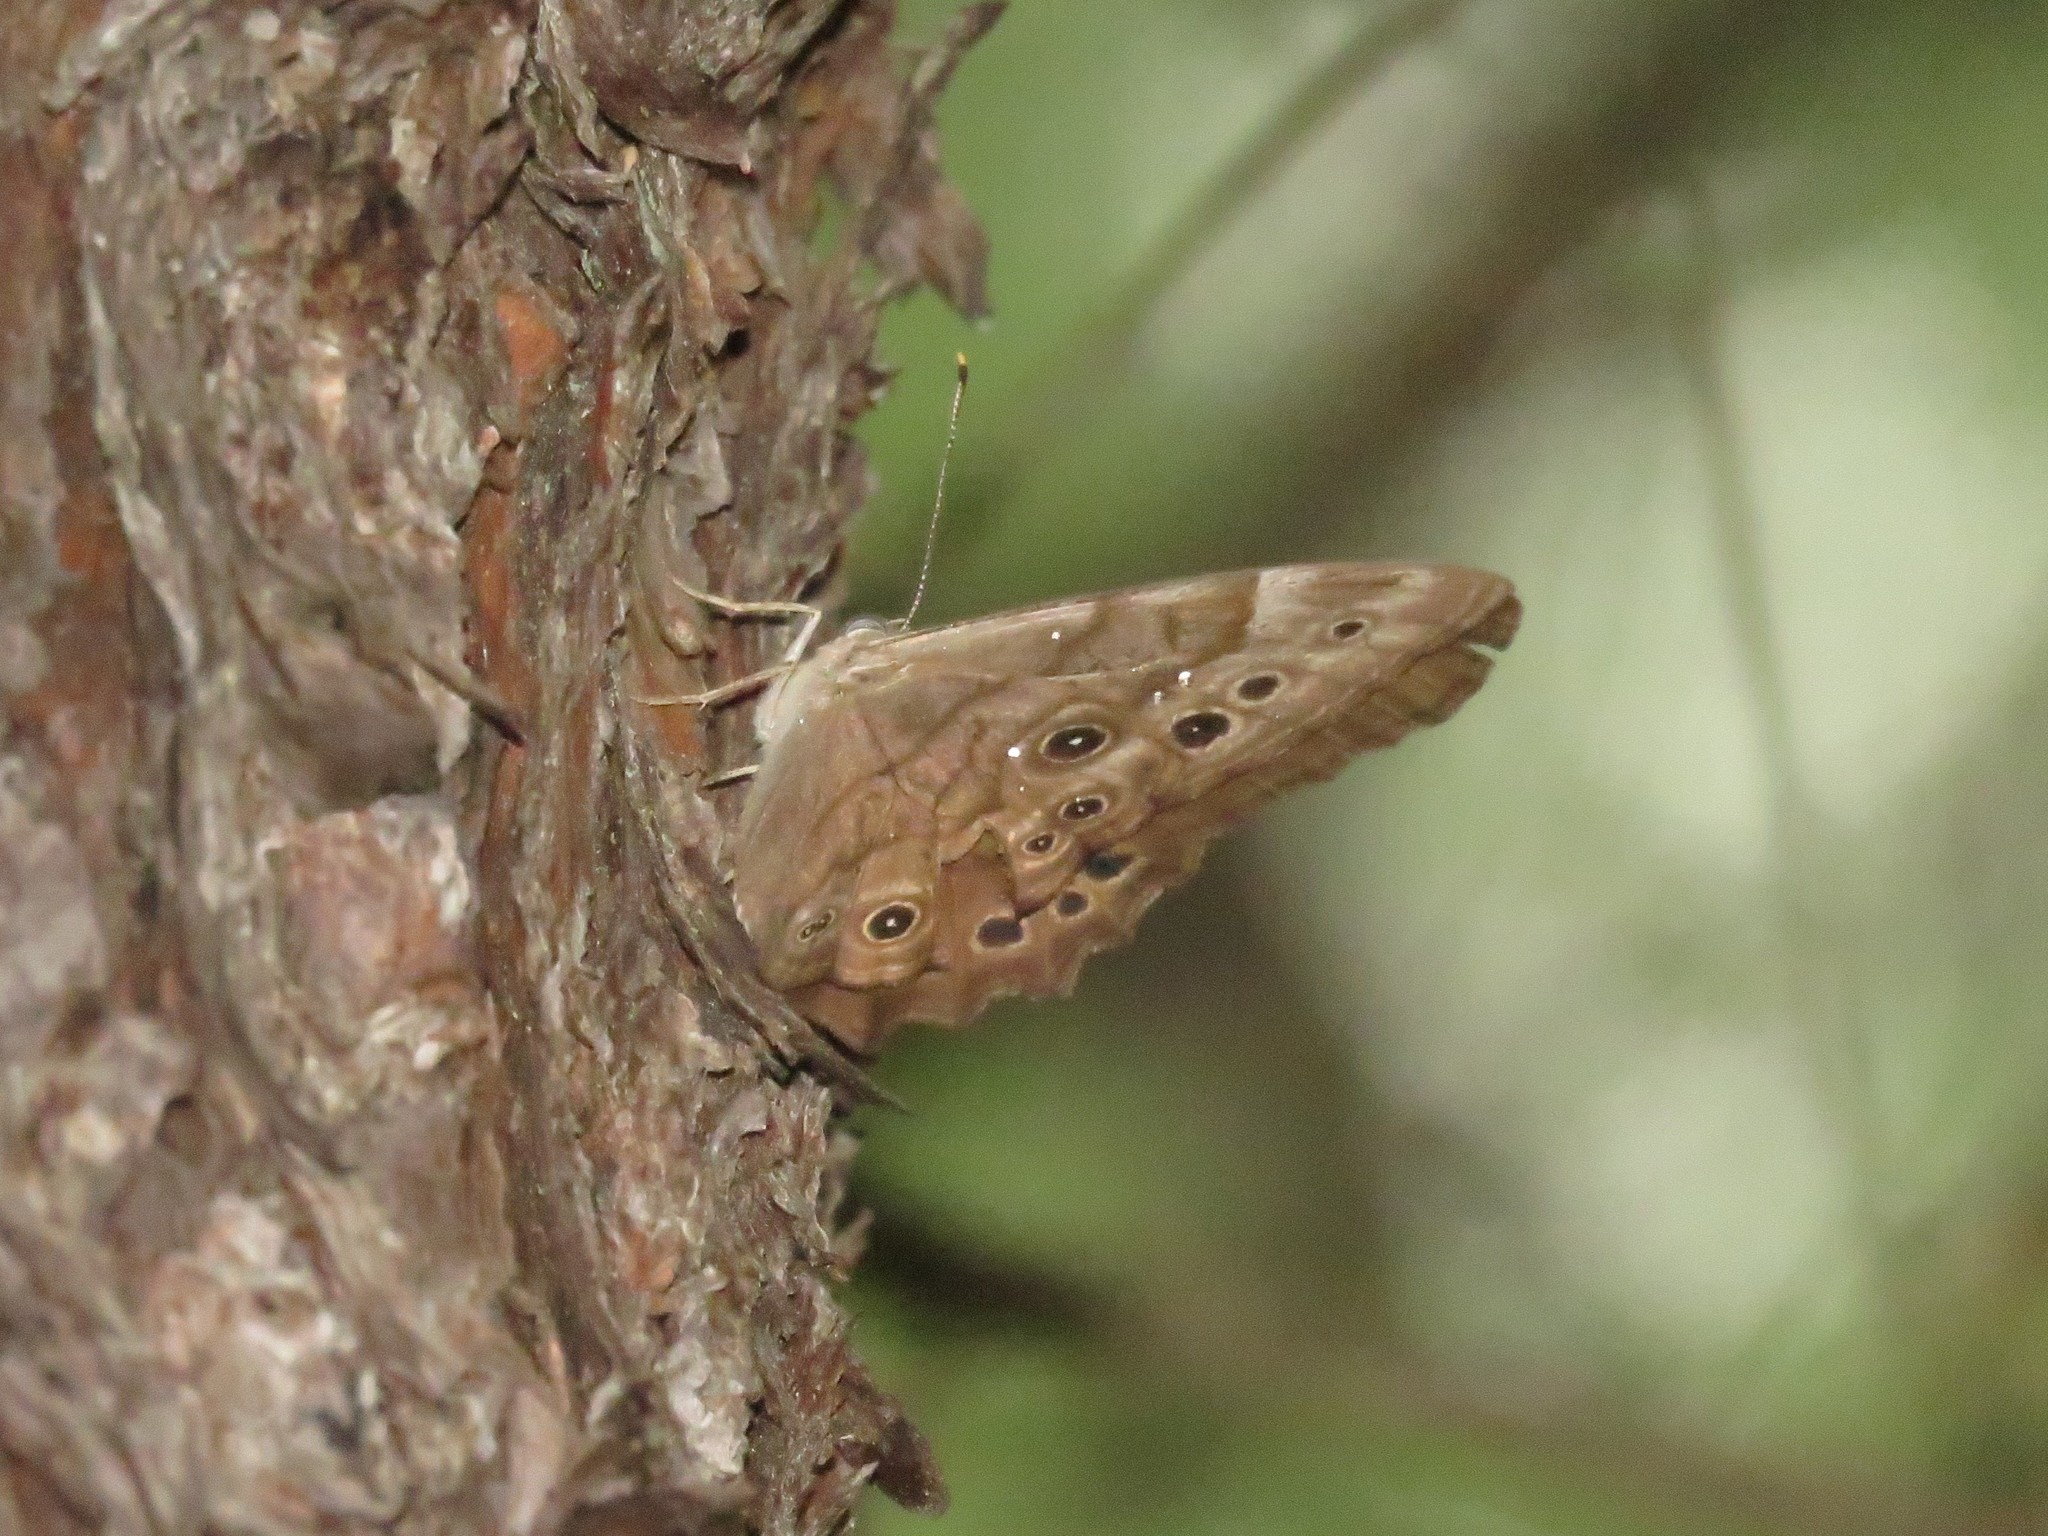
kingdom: Animalia
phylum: Arthropoda
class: Insecta
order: Lepidoptera
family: Nymphalidae
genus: Lethe
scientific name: Lethe anthedon
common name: Northern pearly-eye
